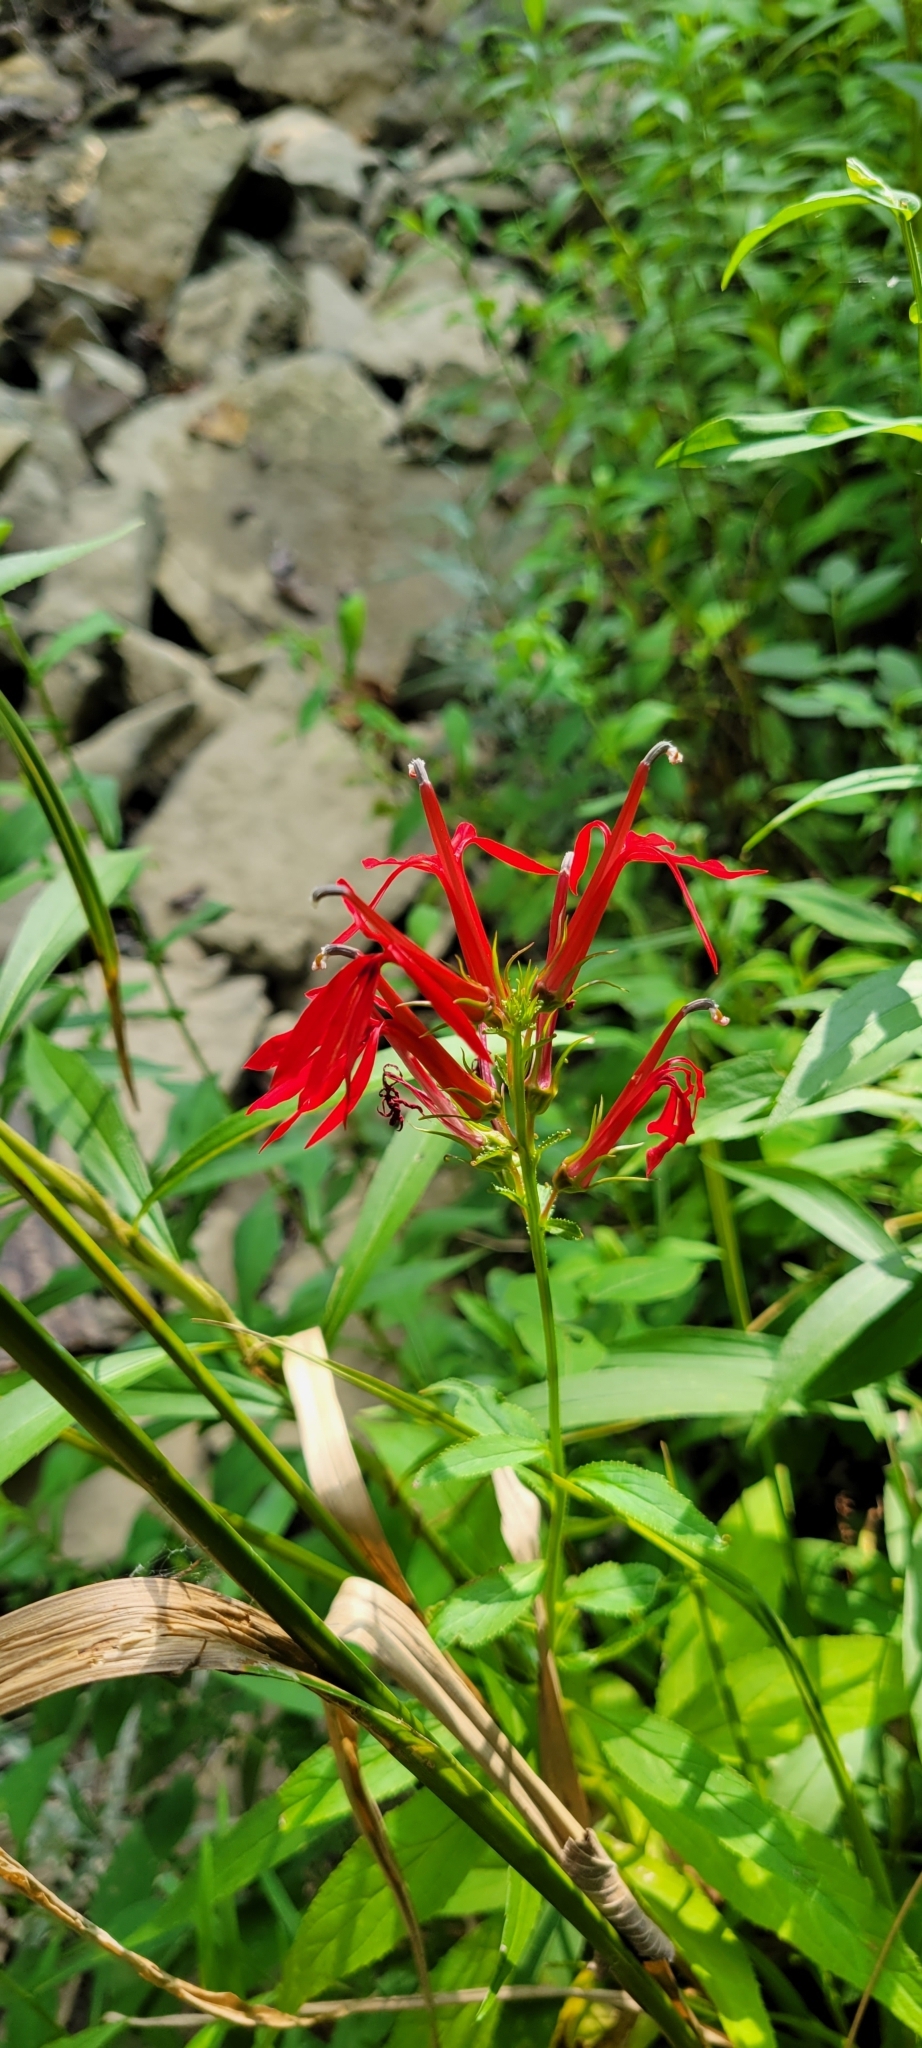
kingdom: Plantae
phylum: Tracheophyta
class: Magnoliopsida
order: Asterales
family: Campanulaceae
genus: Lobelia
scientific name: Lobelia cardinalis
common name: Cardinal flower
